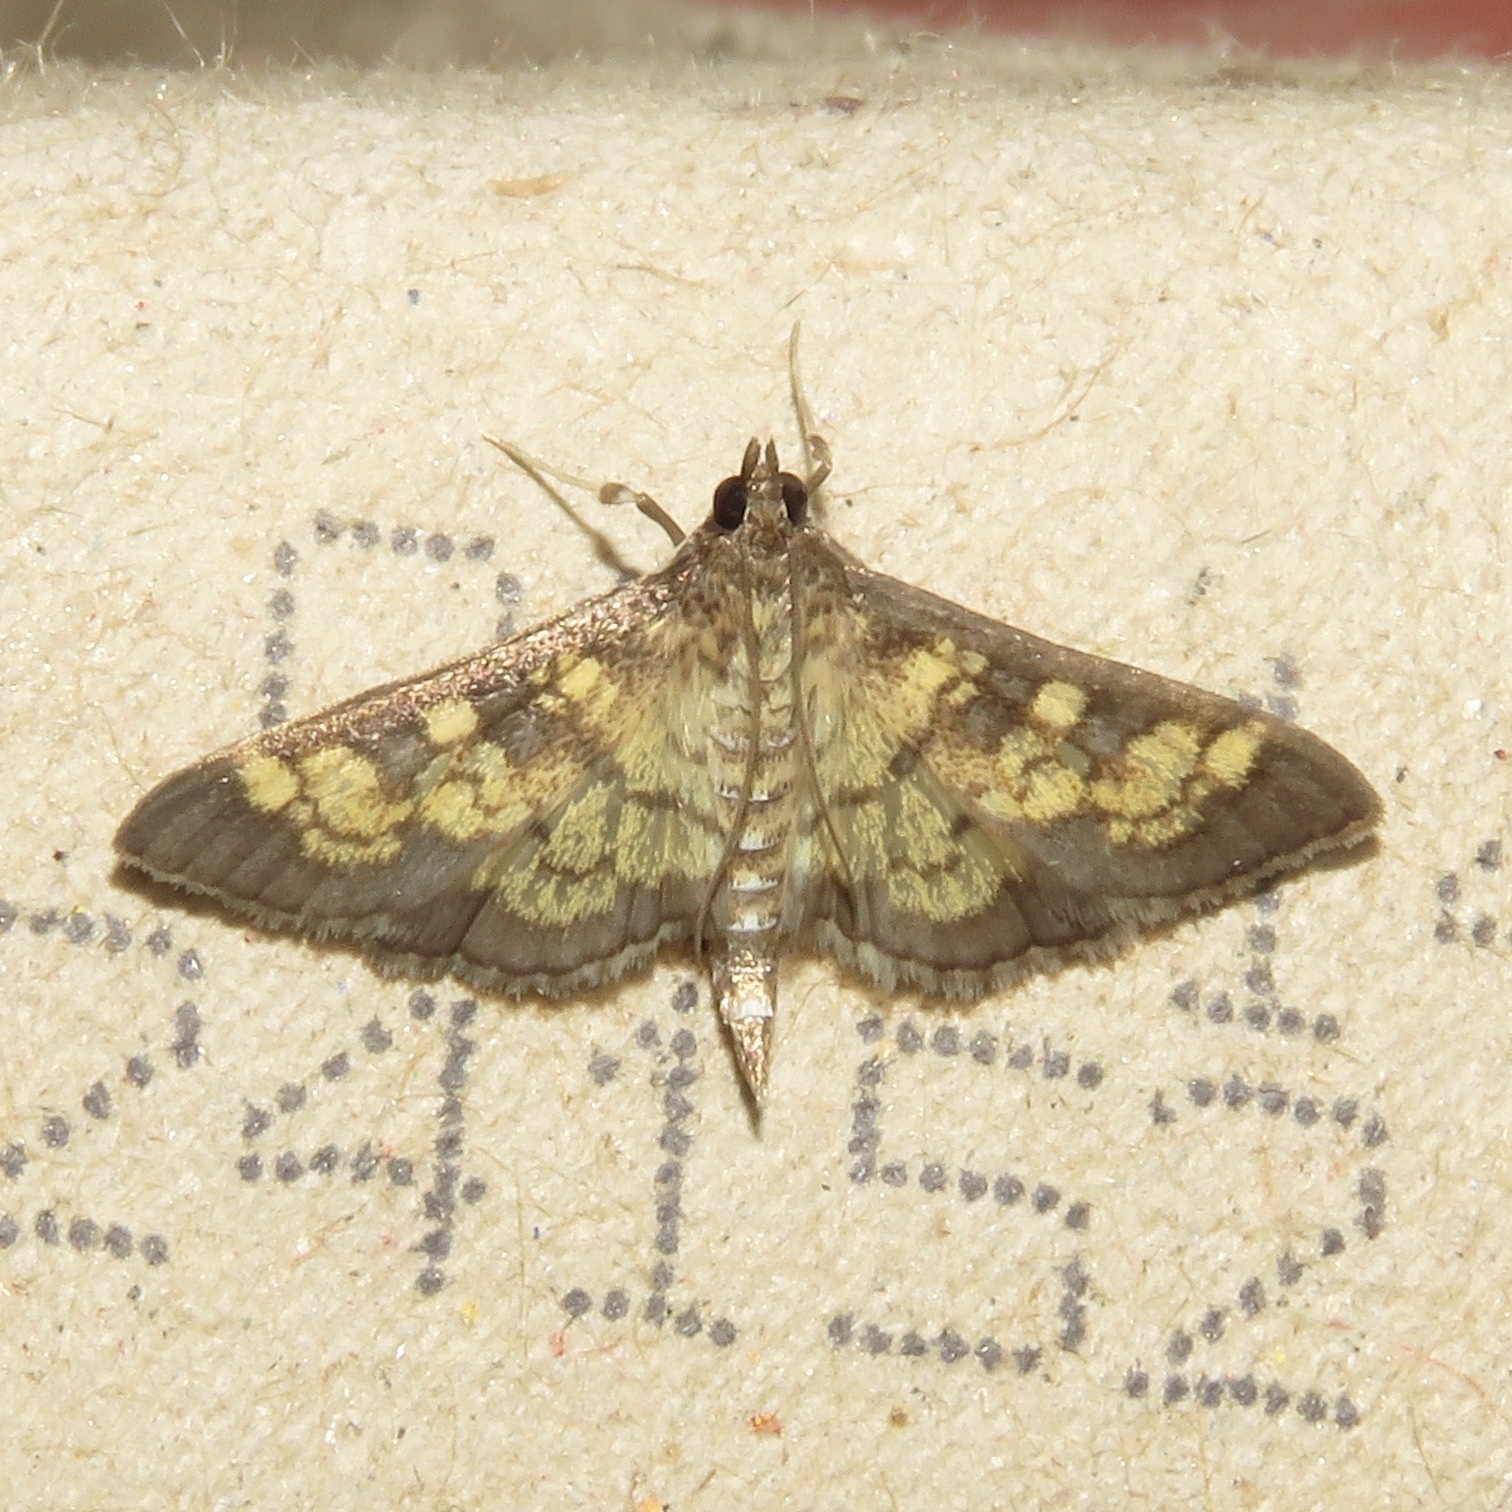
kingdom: Animalia
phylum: Arthropoda
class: Insecta
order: Lepidoptera
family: Crambidae
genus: Epipagis
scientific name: Epipagis adipaloides
